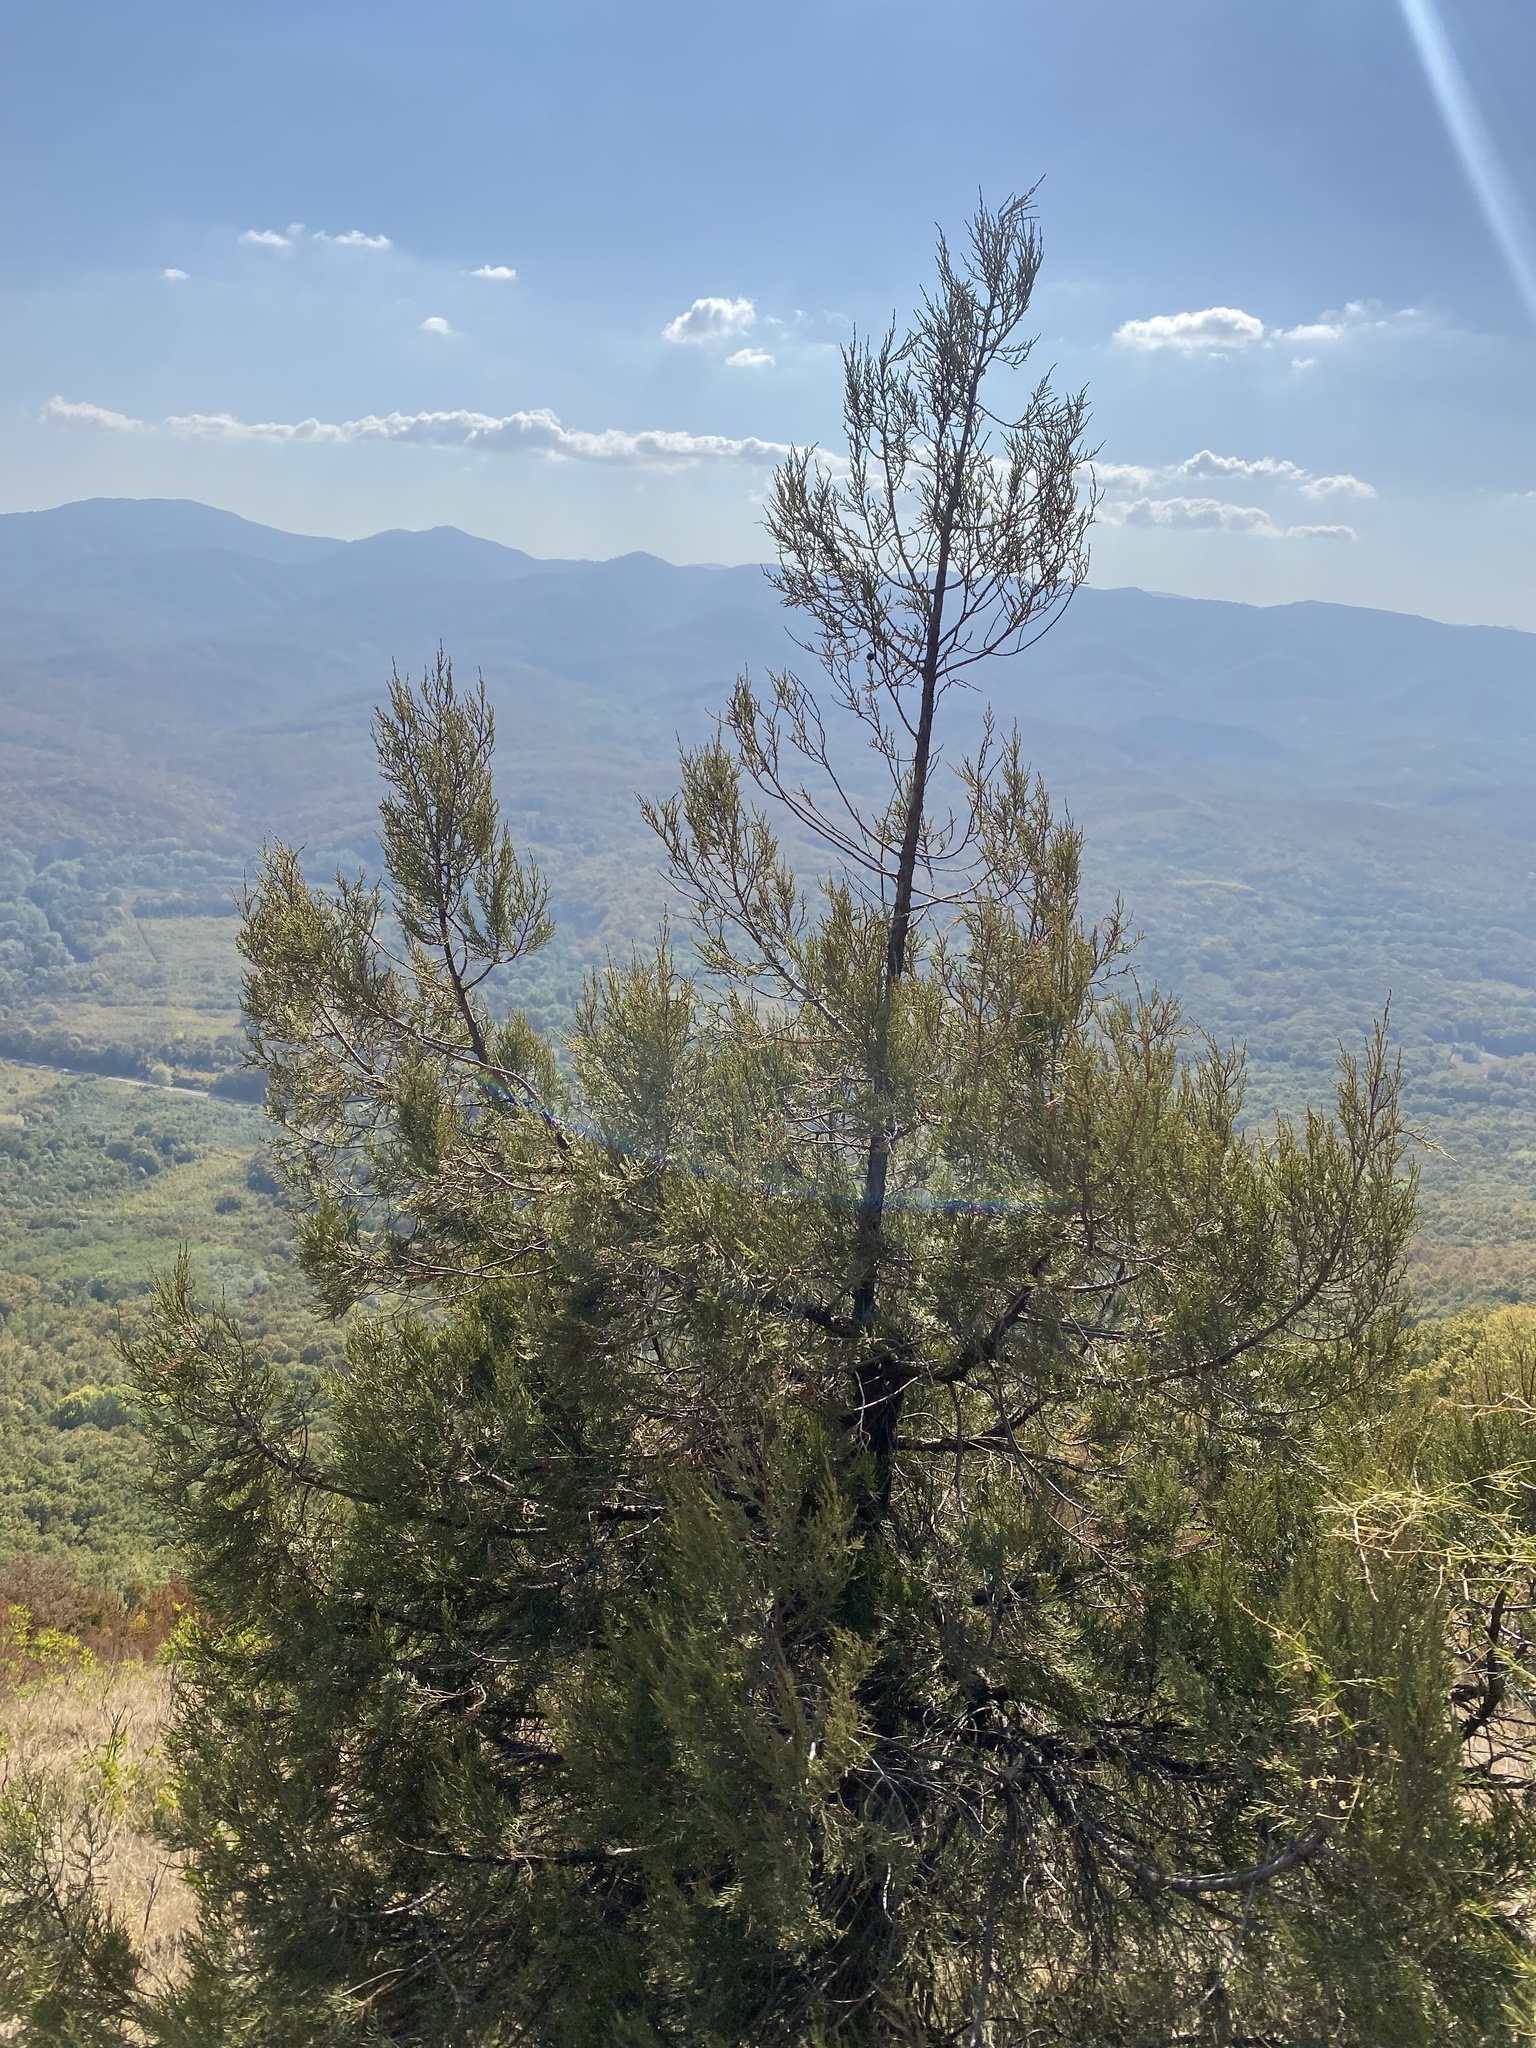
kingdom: Plantae
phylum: Tracheophyta
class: Pinopsida
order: Pinales
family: Cupressaceae
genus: Juniperus
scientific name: Juniperus excelsa
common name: Crimean juniper
